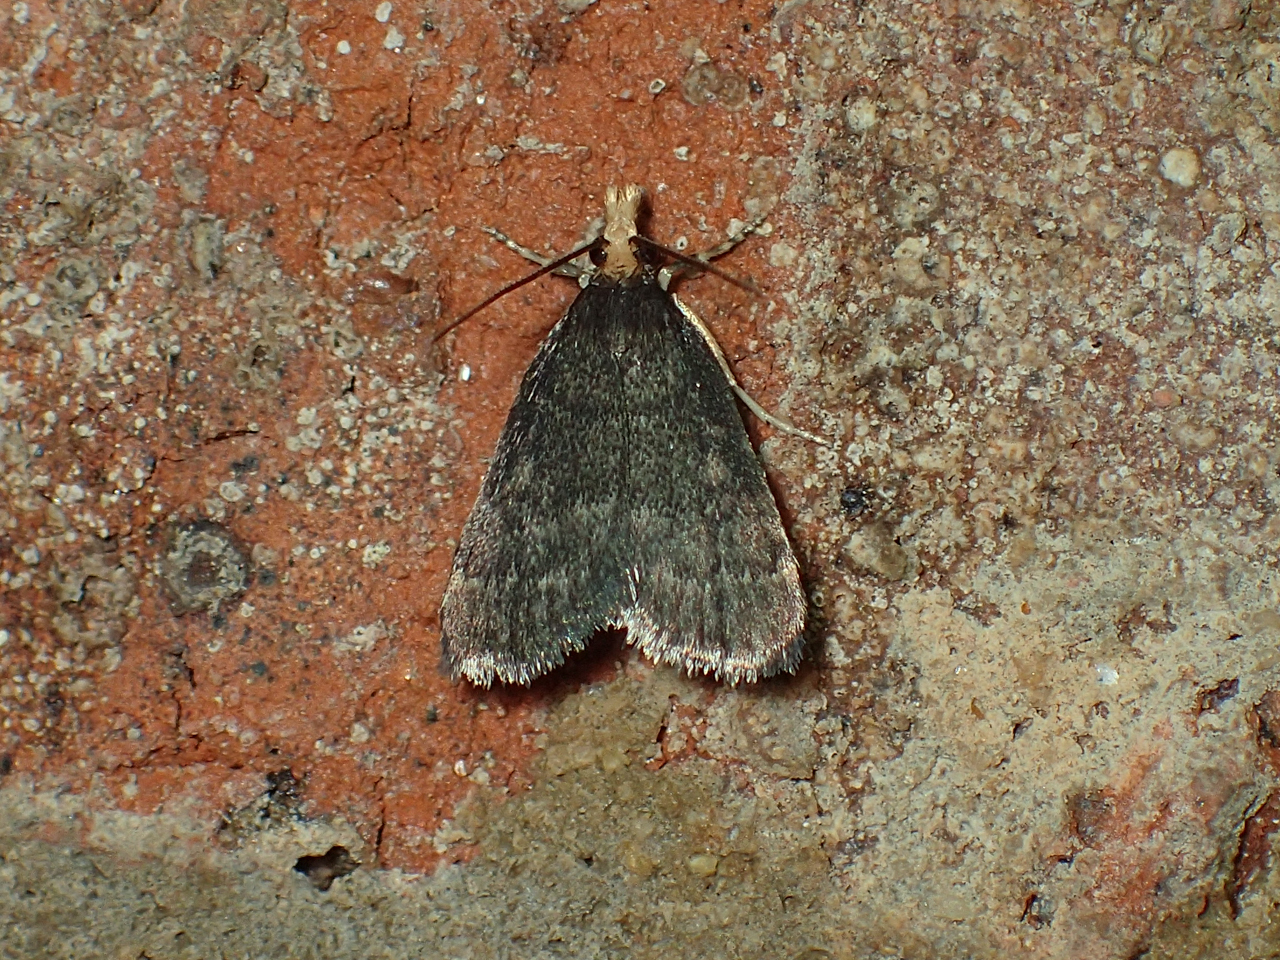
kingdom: Animalia
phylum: Arthropoda
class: Insecta
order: Lepidoptera
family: Crambidae
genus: Pyrausta
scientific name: Pyrausta merrickalis
